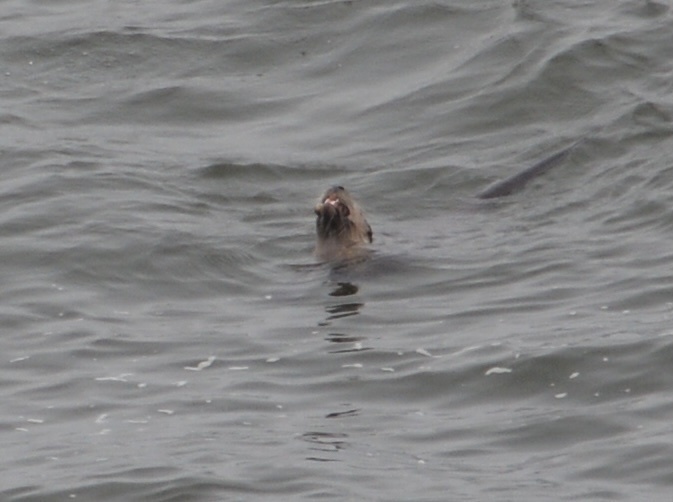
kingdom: Animalia
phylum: Chordata
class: Mammalia
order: Carnivora
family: Mustelidae
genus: Lontra
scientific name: Lontra canadensis
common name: North american river otter
